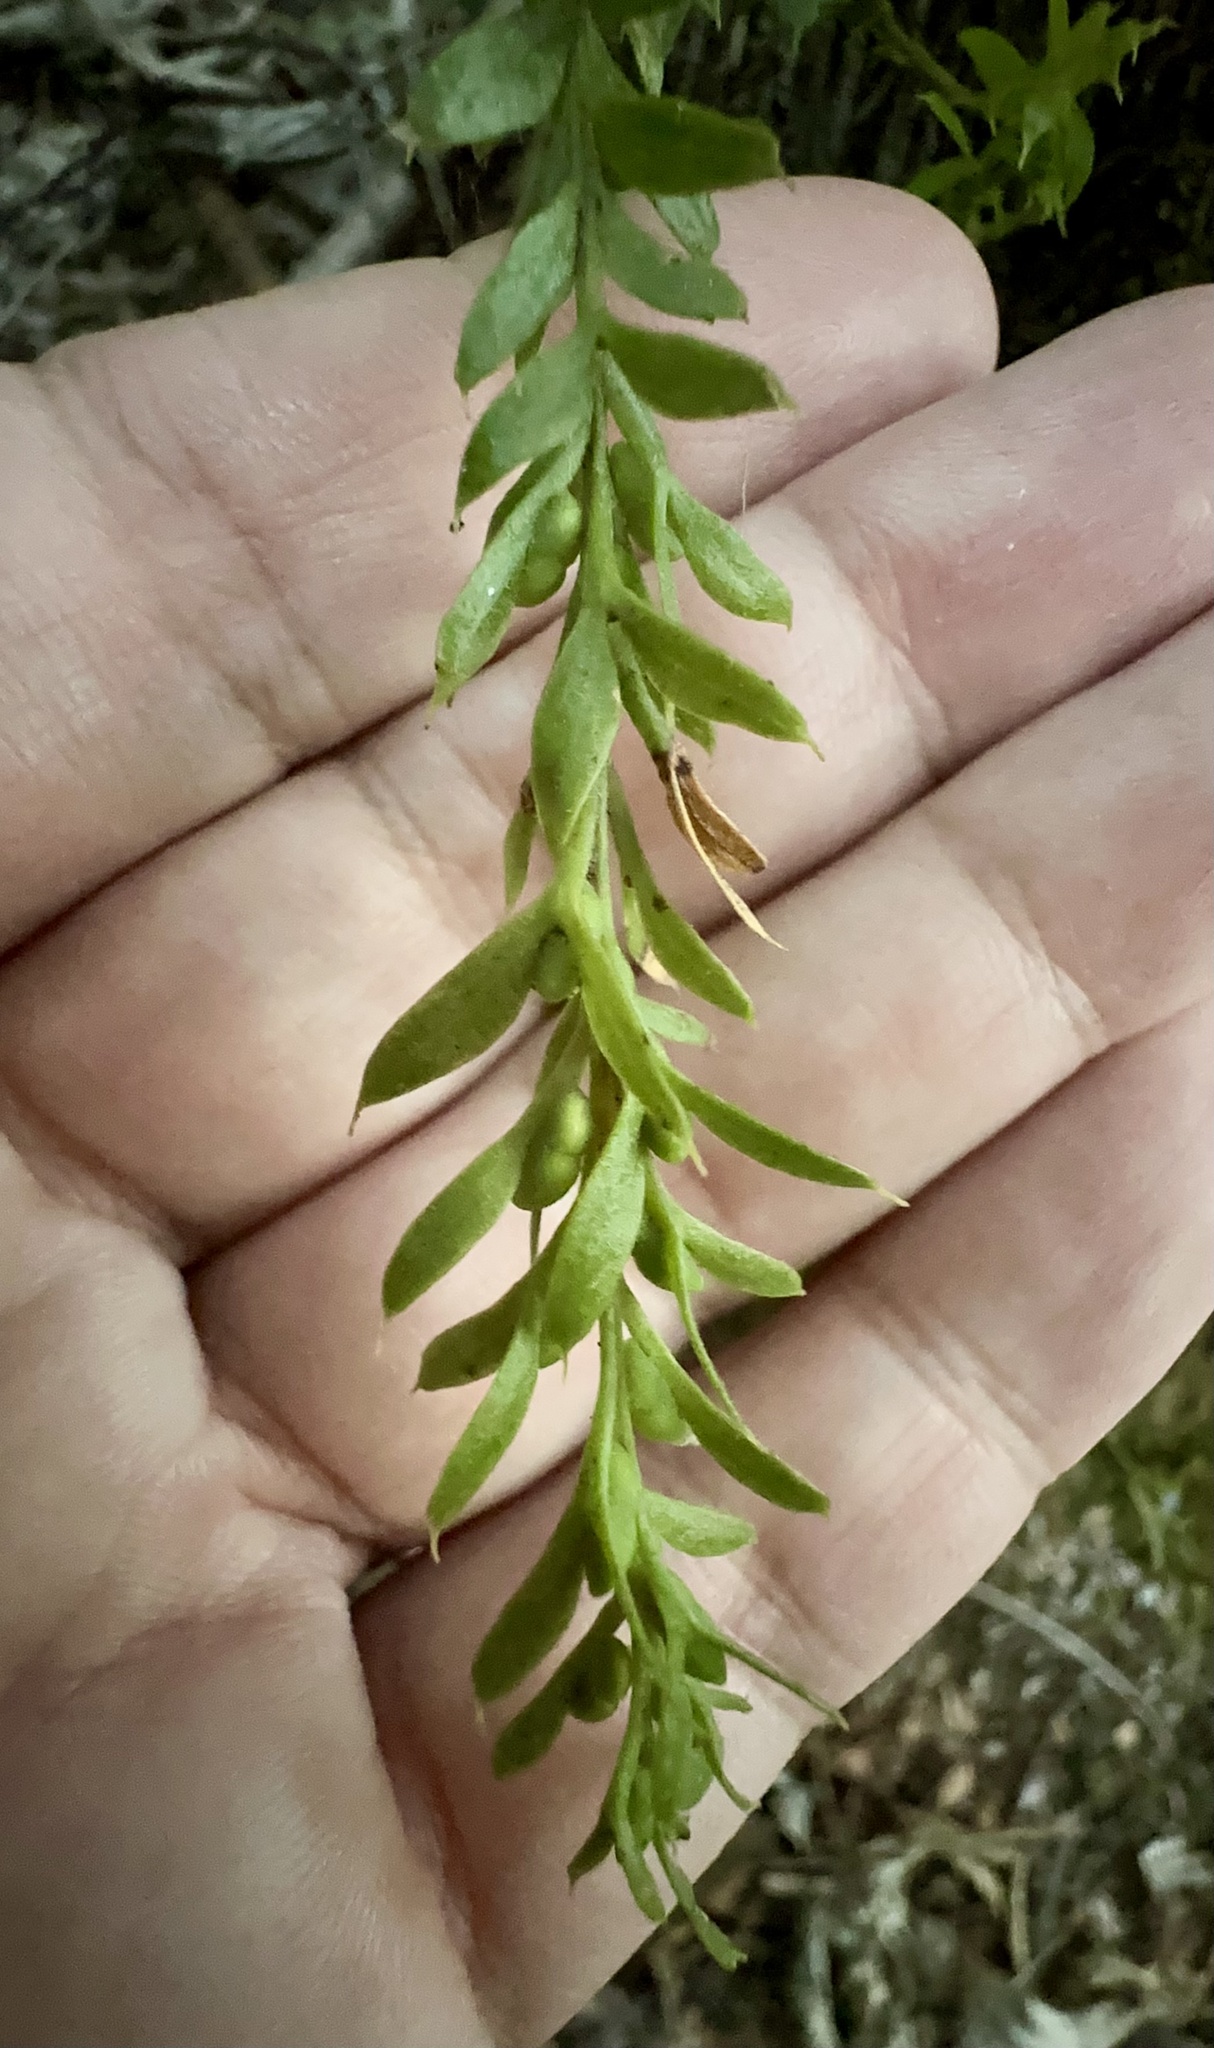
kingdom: Plantae
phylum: Tracheophyta
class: Polypodiopsida
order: Psilotales
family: Psilotaceae
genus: Tmesipteris
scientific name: Tmesipteris elongata
